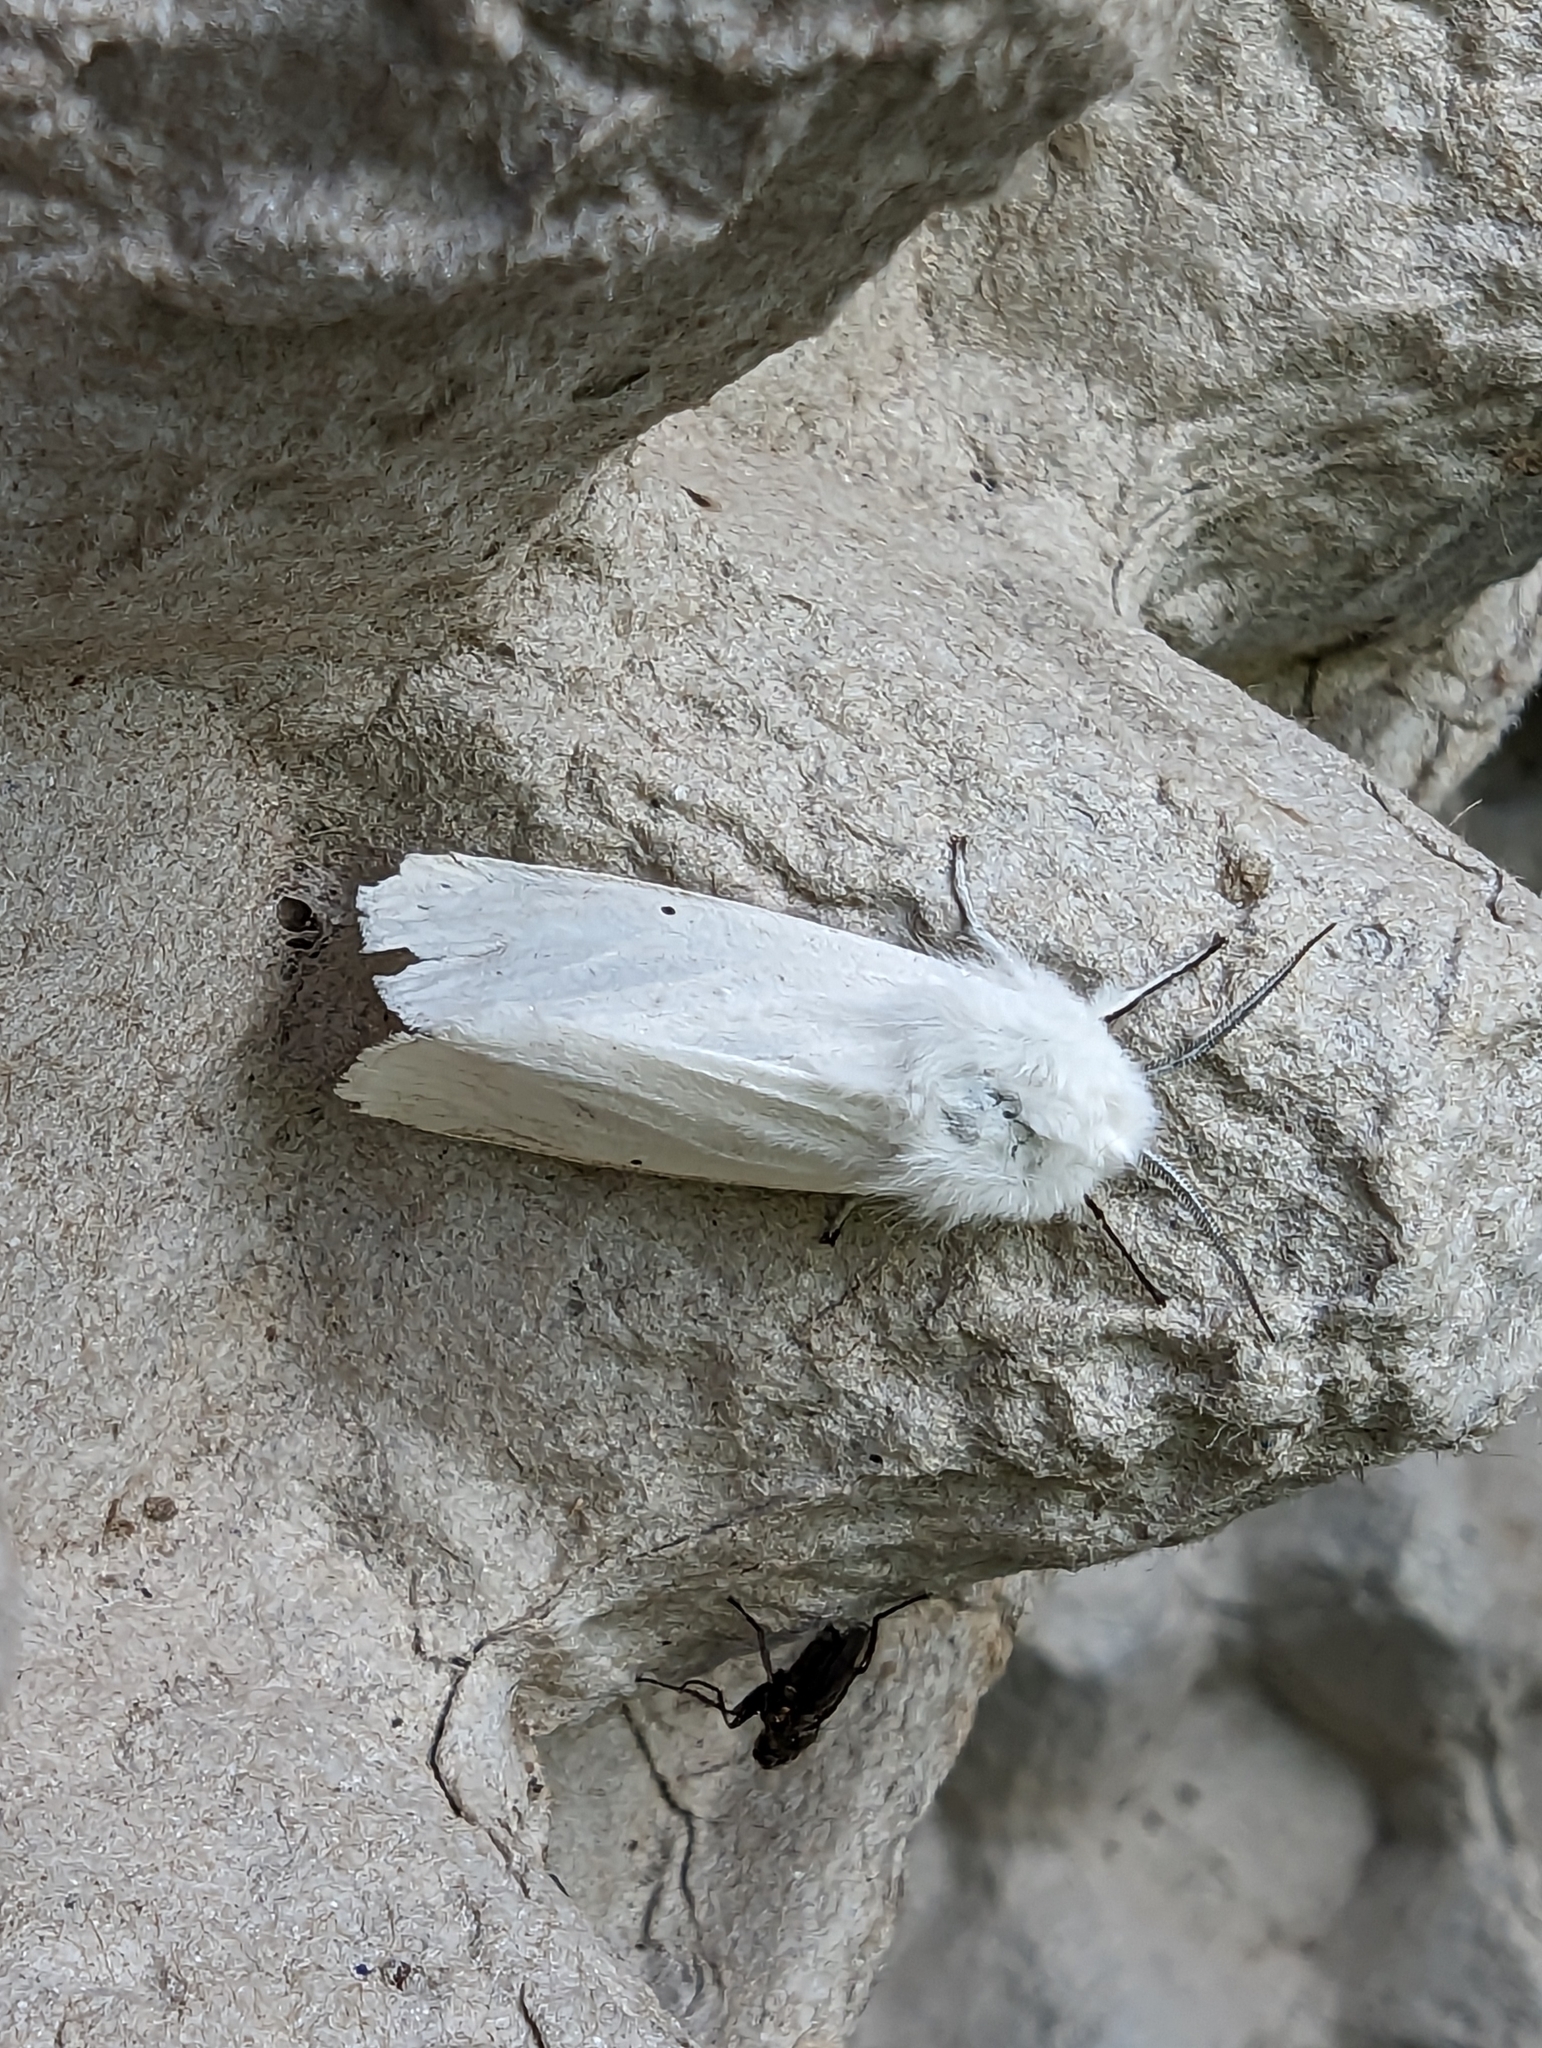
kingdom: Animalia
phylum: Arthropoda
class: Insecta
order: Lepidoptera
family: Erebidae
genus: Spilosoma
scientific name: Spilosoma lubricipeda
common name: White ermine
